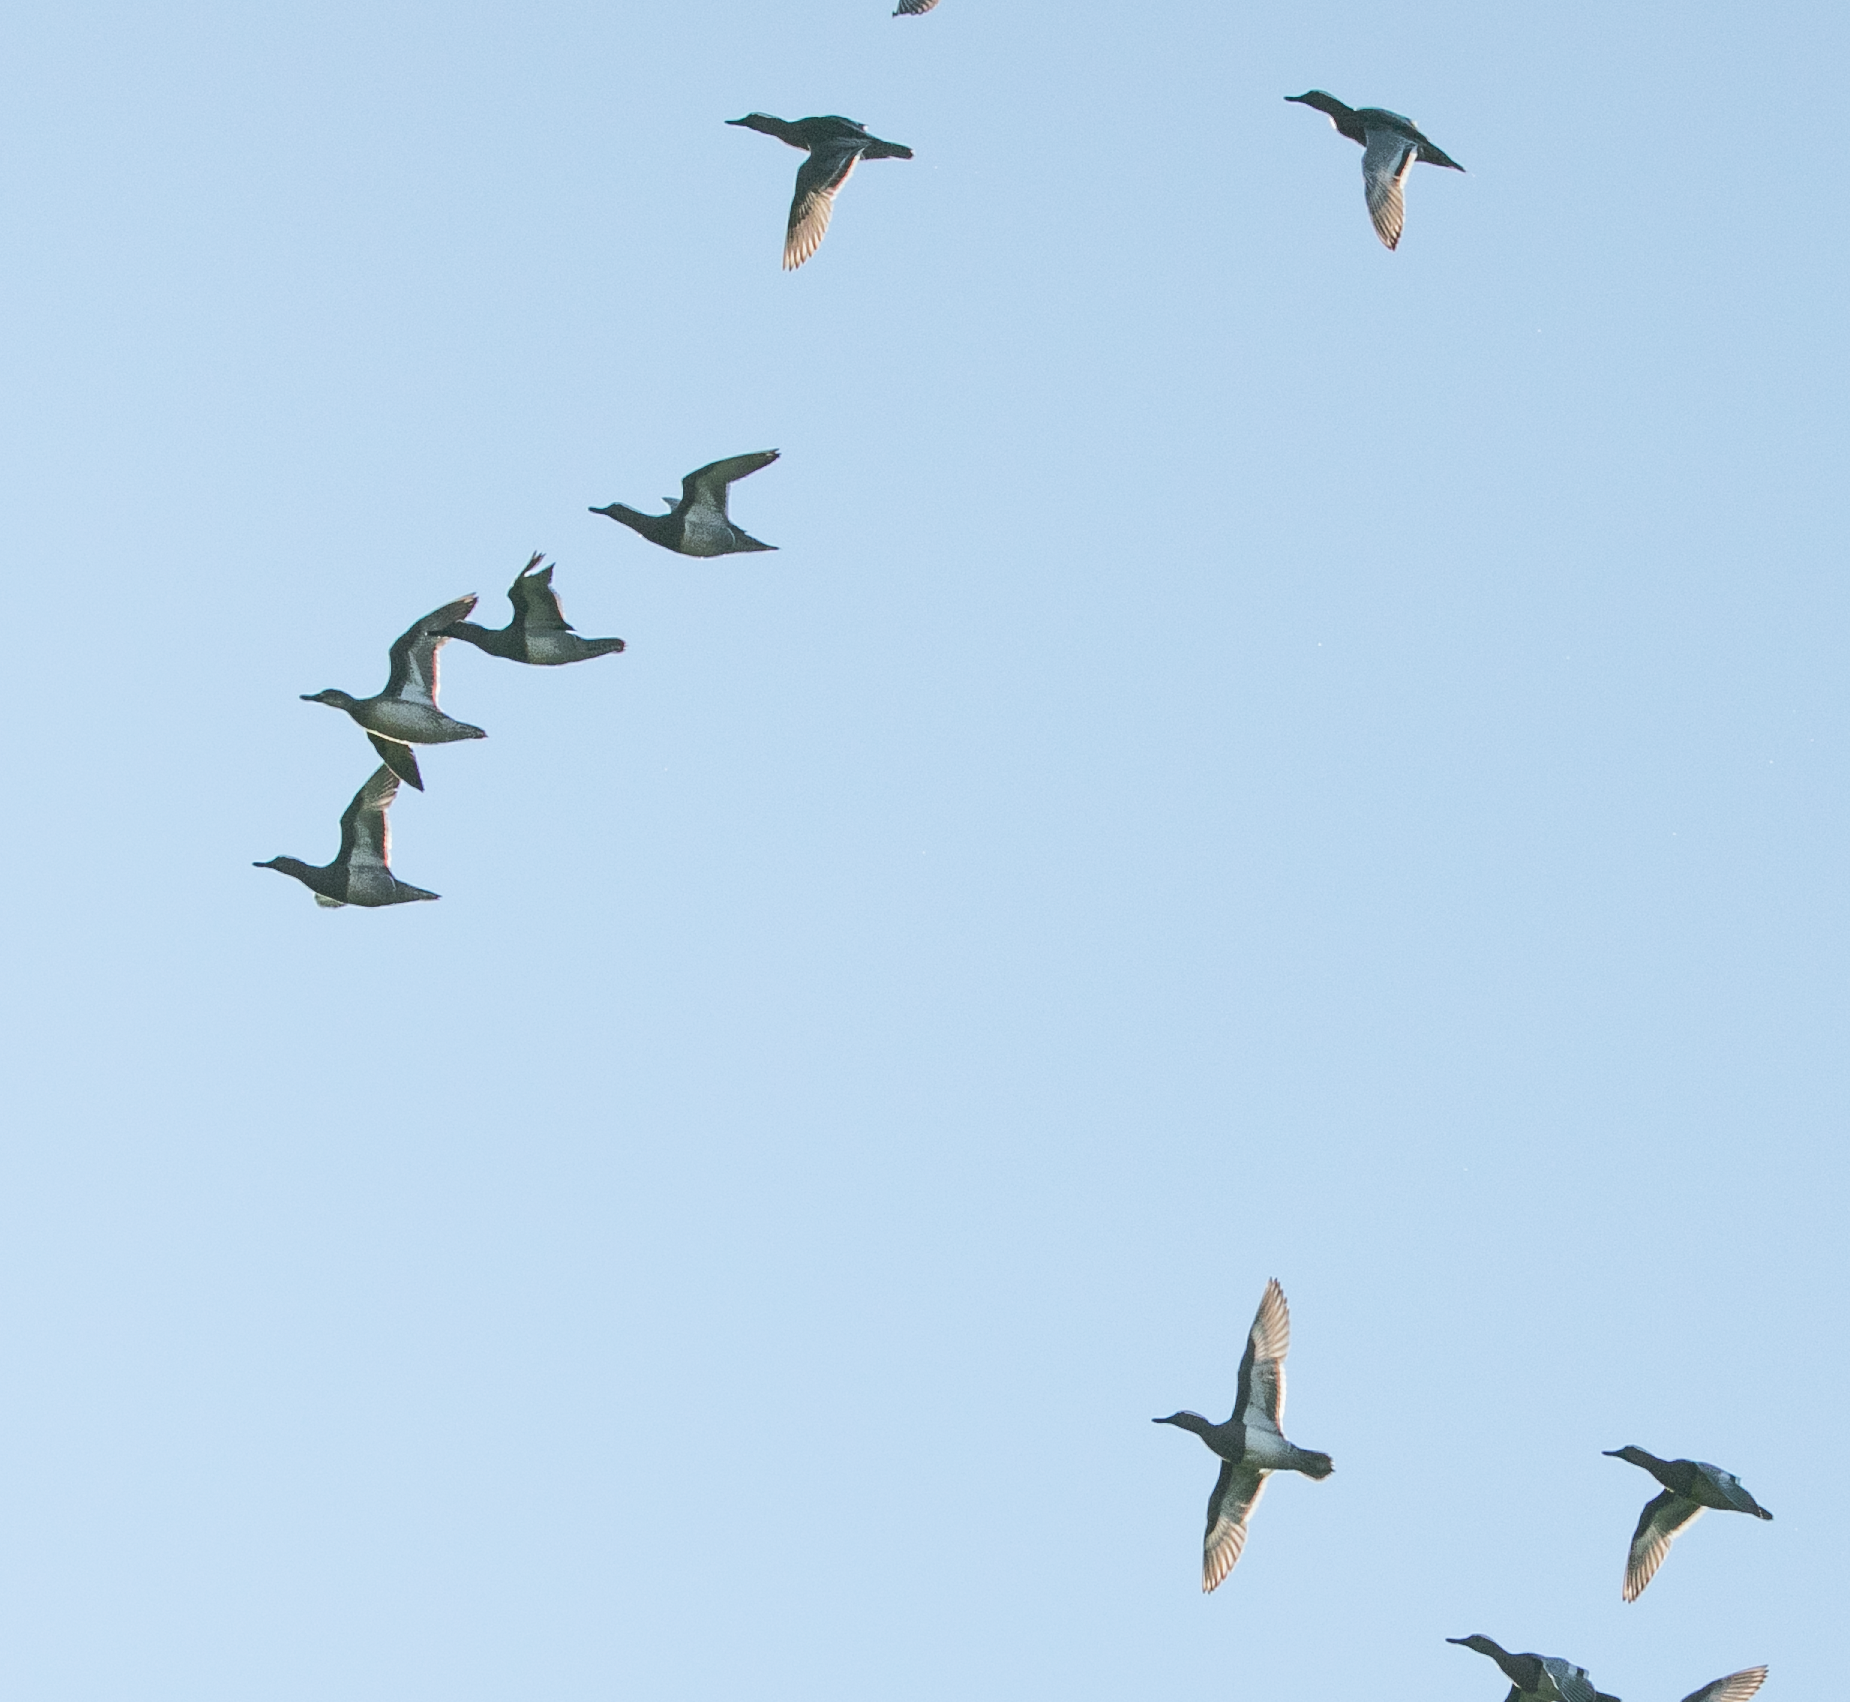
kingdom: Animalia
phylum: Chordata
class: Aves
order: Anseriformes
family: Anatidae
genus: Spatula
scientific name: Spatula querquedula
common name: Garganey
